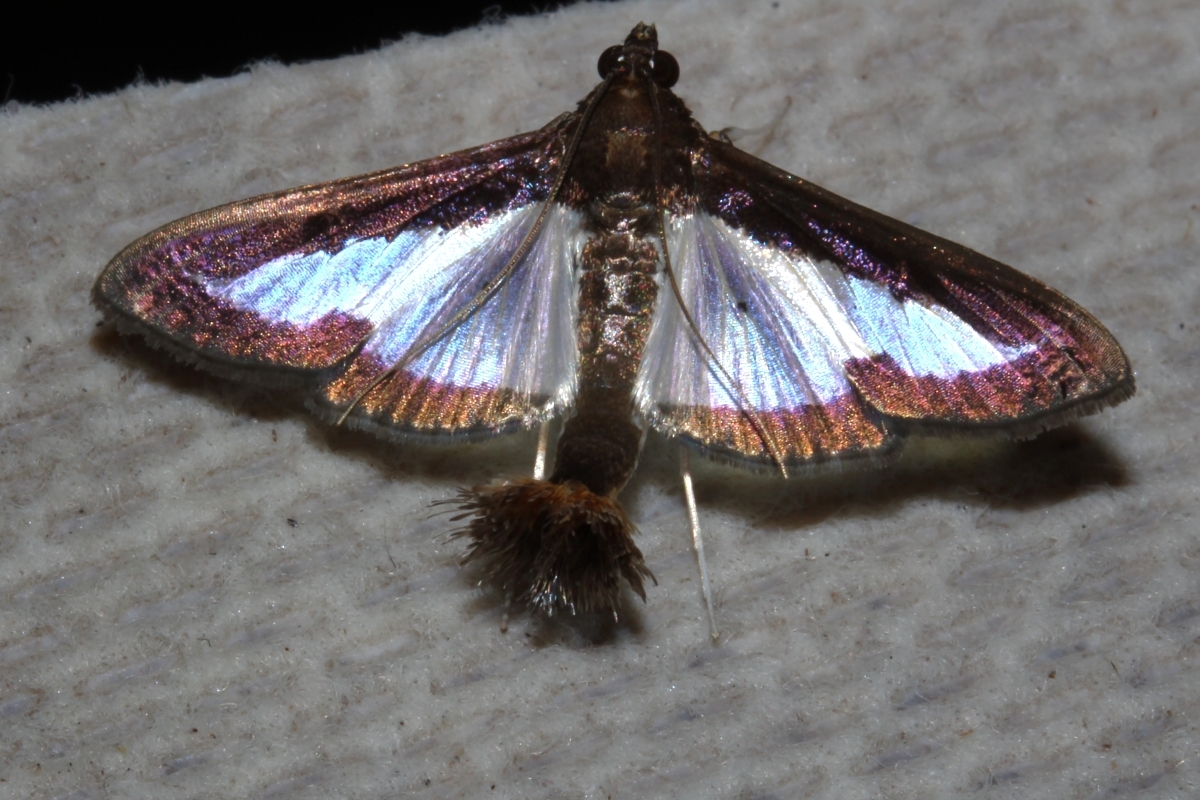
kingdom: Animalia
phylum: Arthropoda
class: Insecta
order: Lepidoptera
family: Crambidae
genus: Diaphania
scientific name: Diaphania elegans
